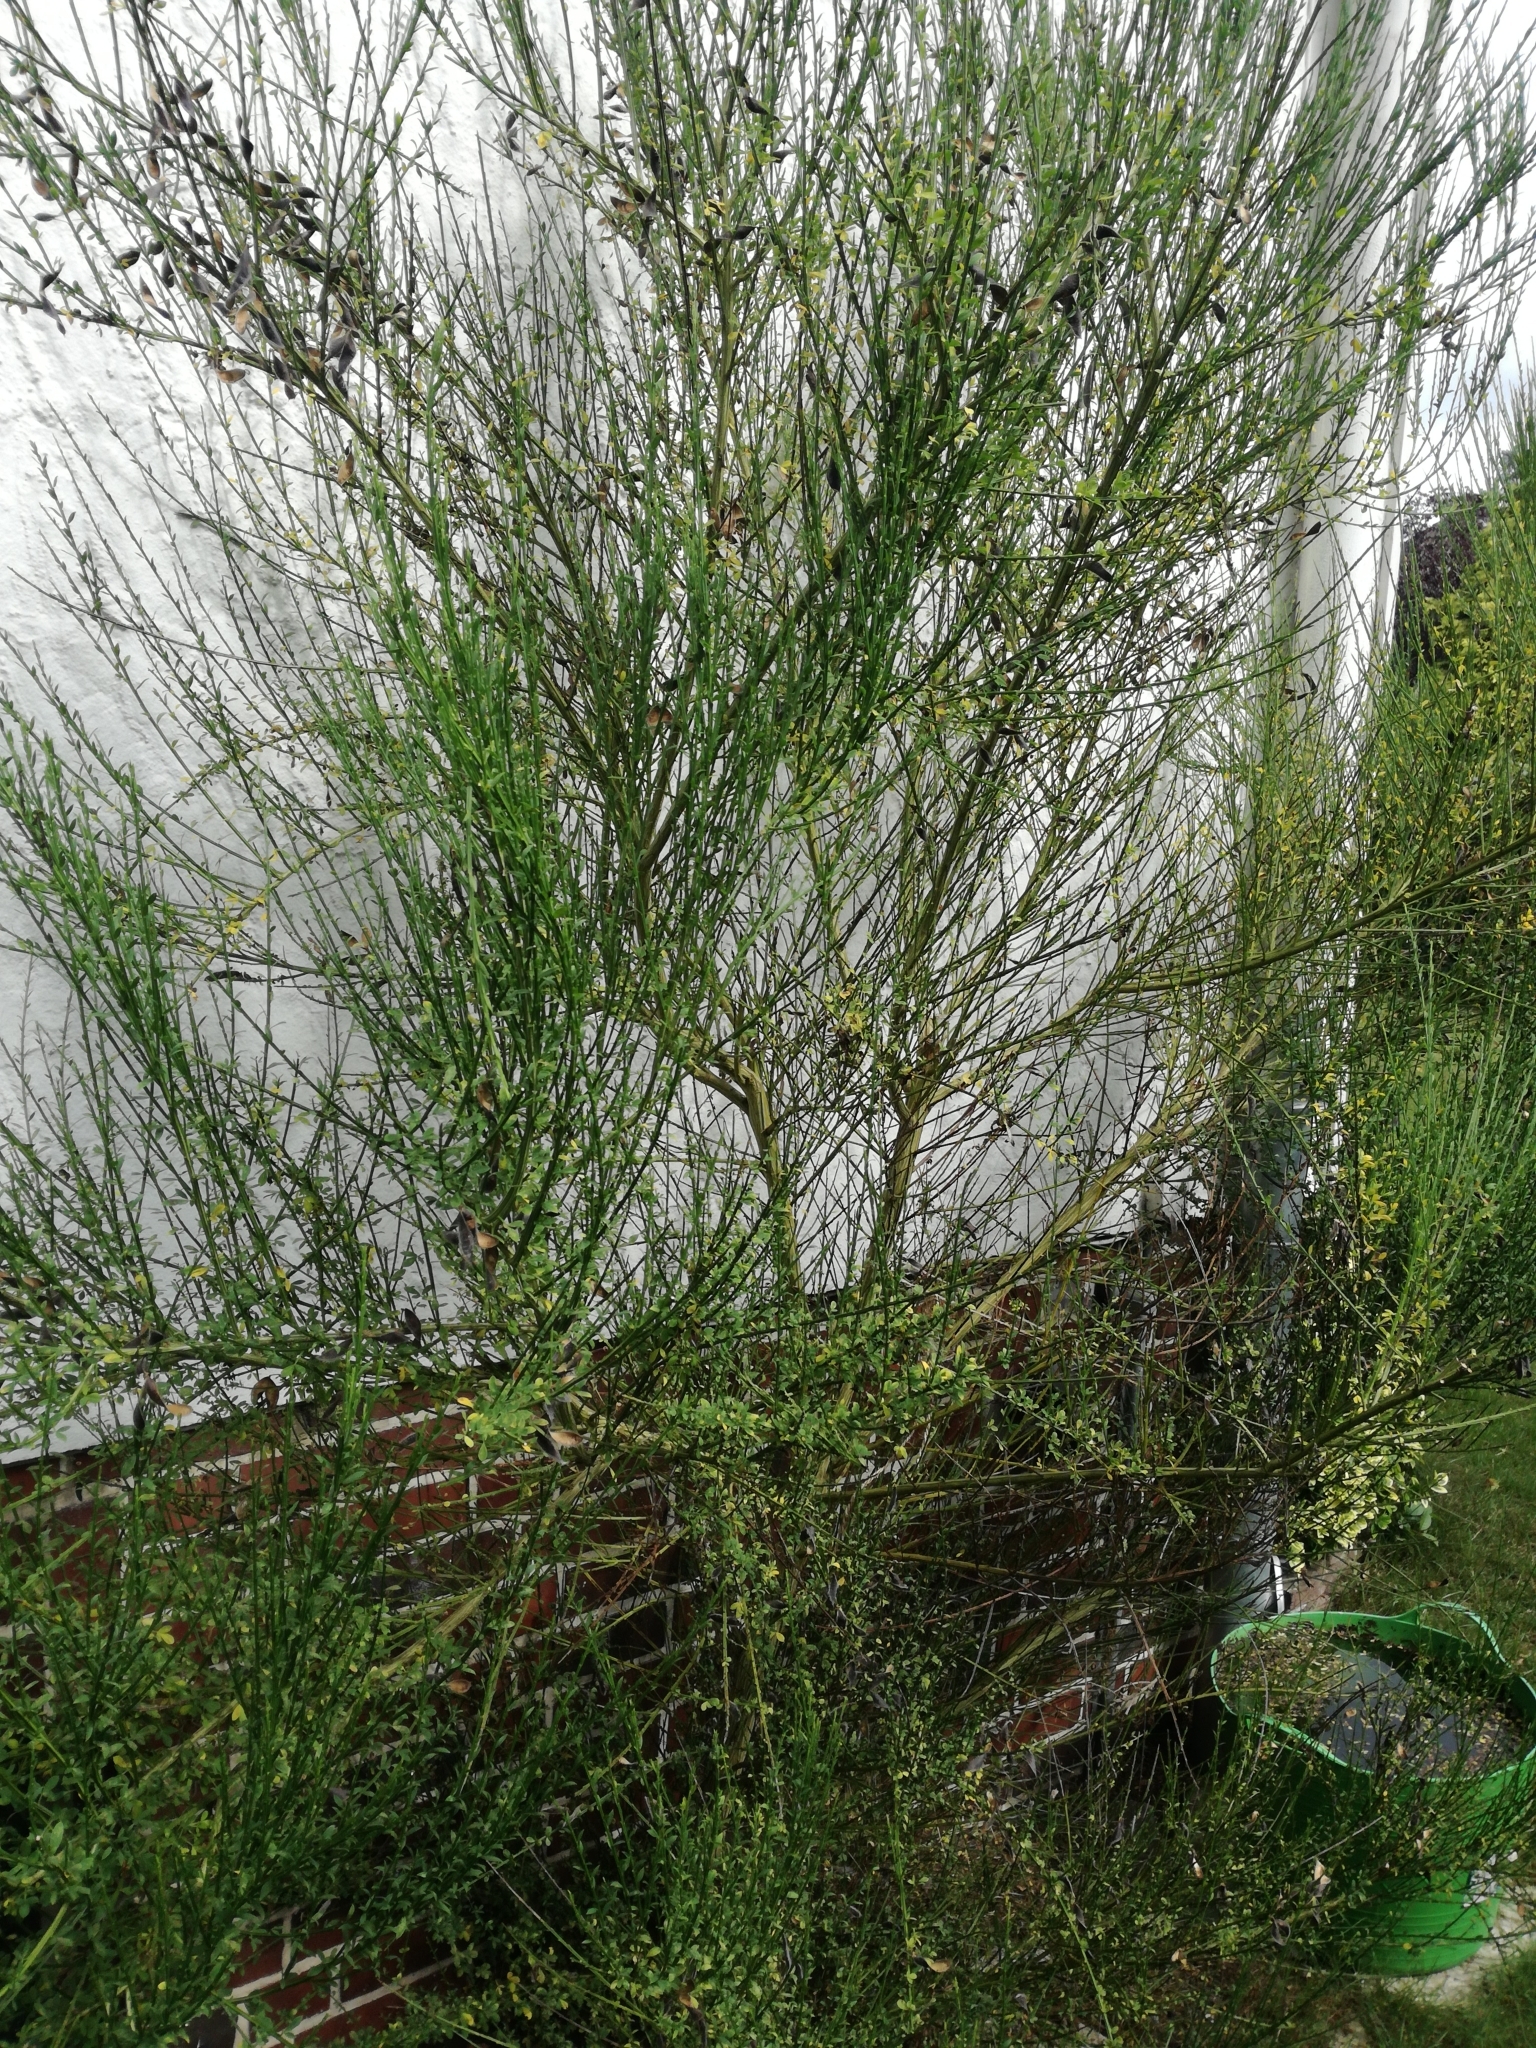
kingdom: Plantae
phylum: Tracheophyta
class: Magnoliopsida
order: Fabales
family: Fabaceae
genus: Cytisus
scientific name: Cytisus scoparius
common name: Scotch broom
